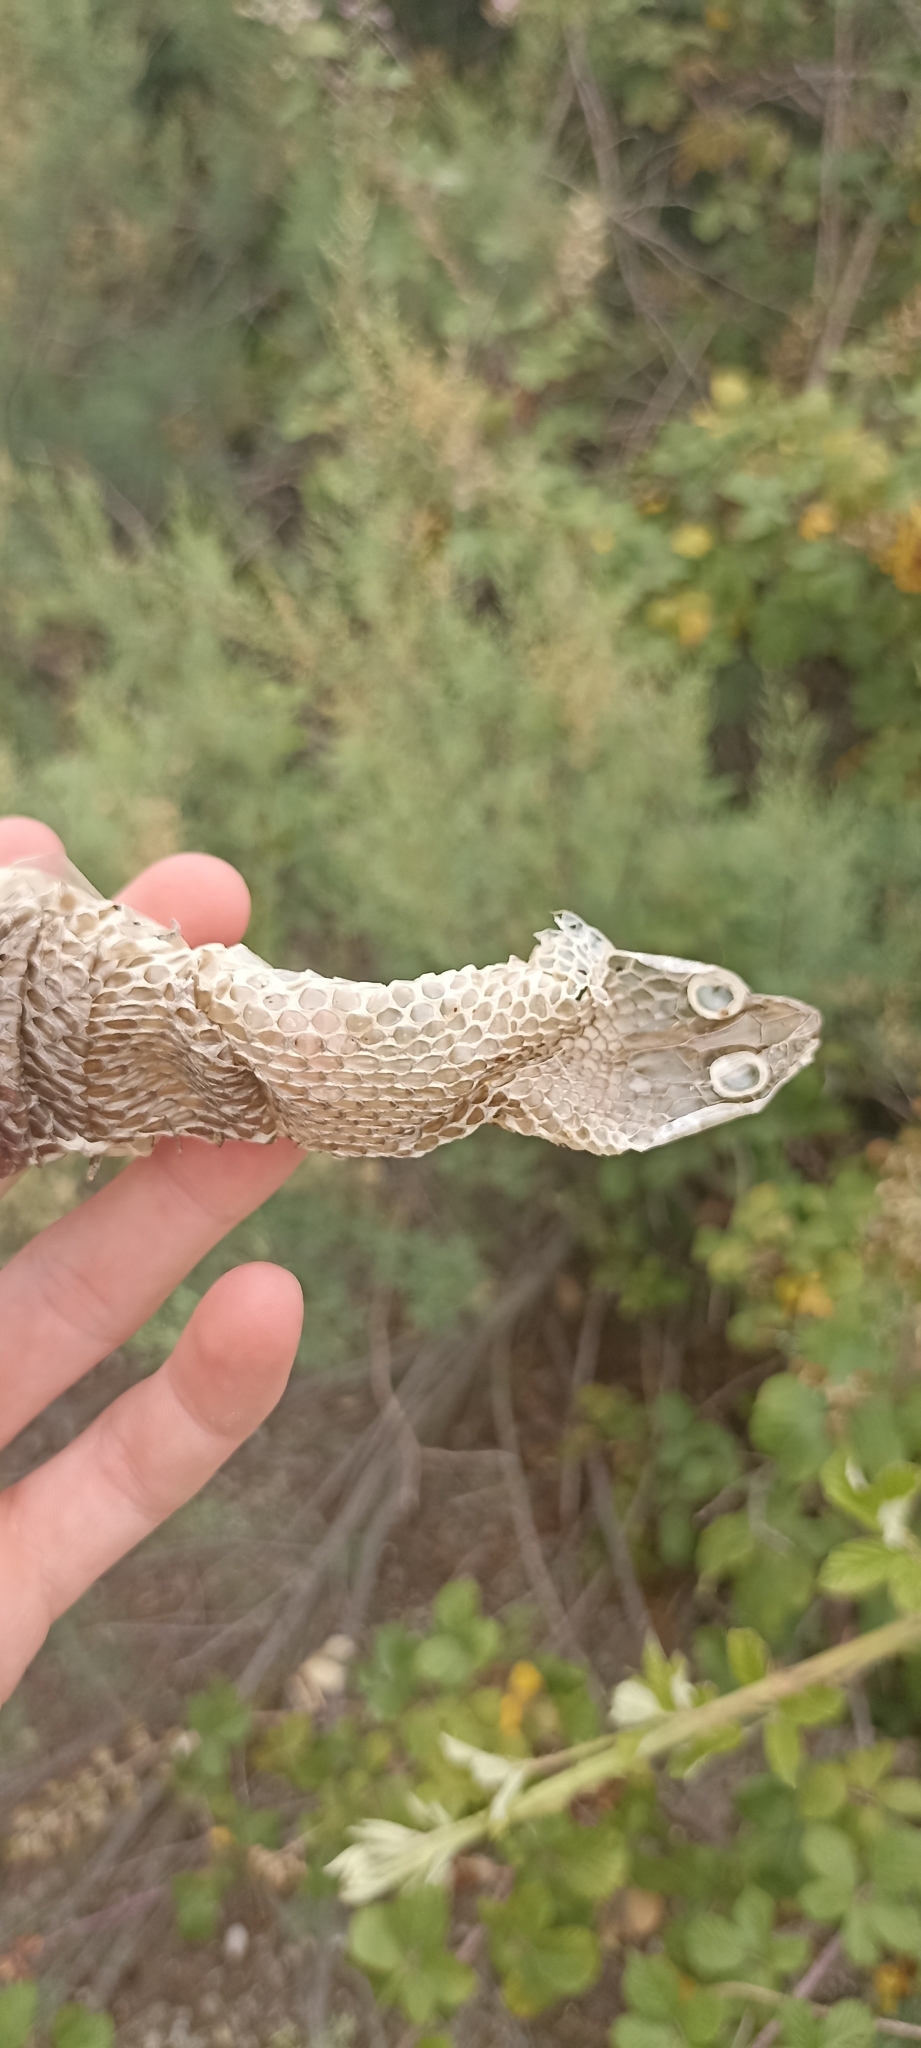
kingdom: Animalia
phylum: Chordata
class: Squamata
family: Psammophiidae
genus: Malpolon
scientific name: Malpolon monspessulanus
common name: Montpellier snake
